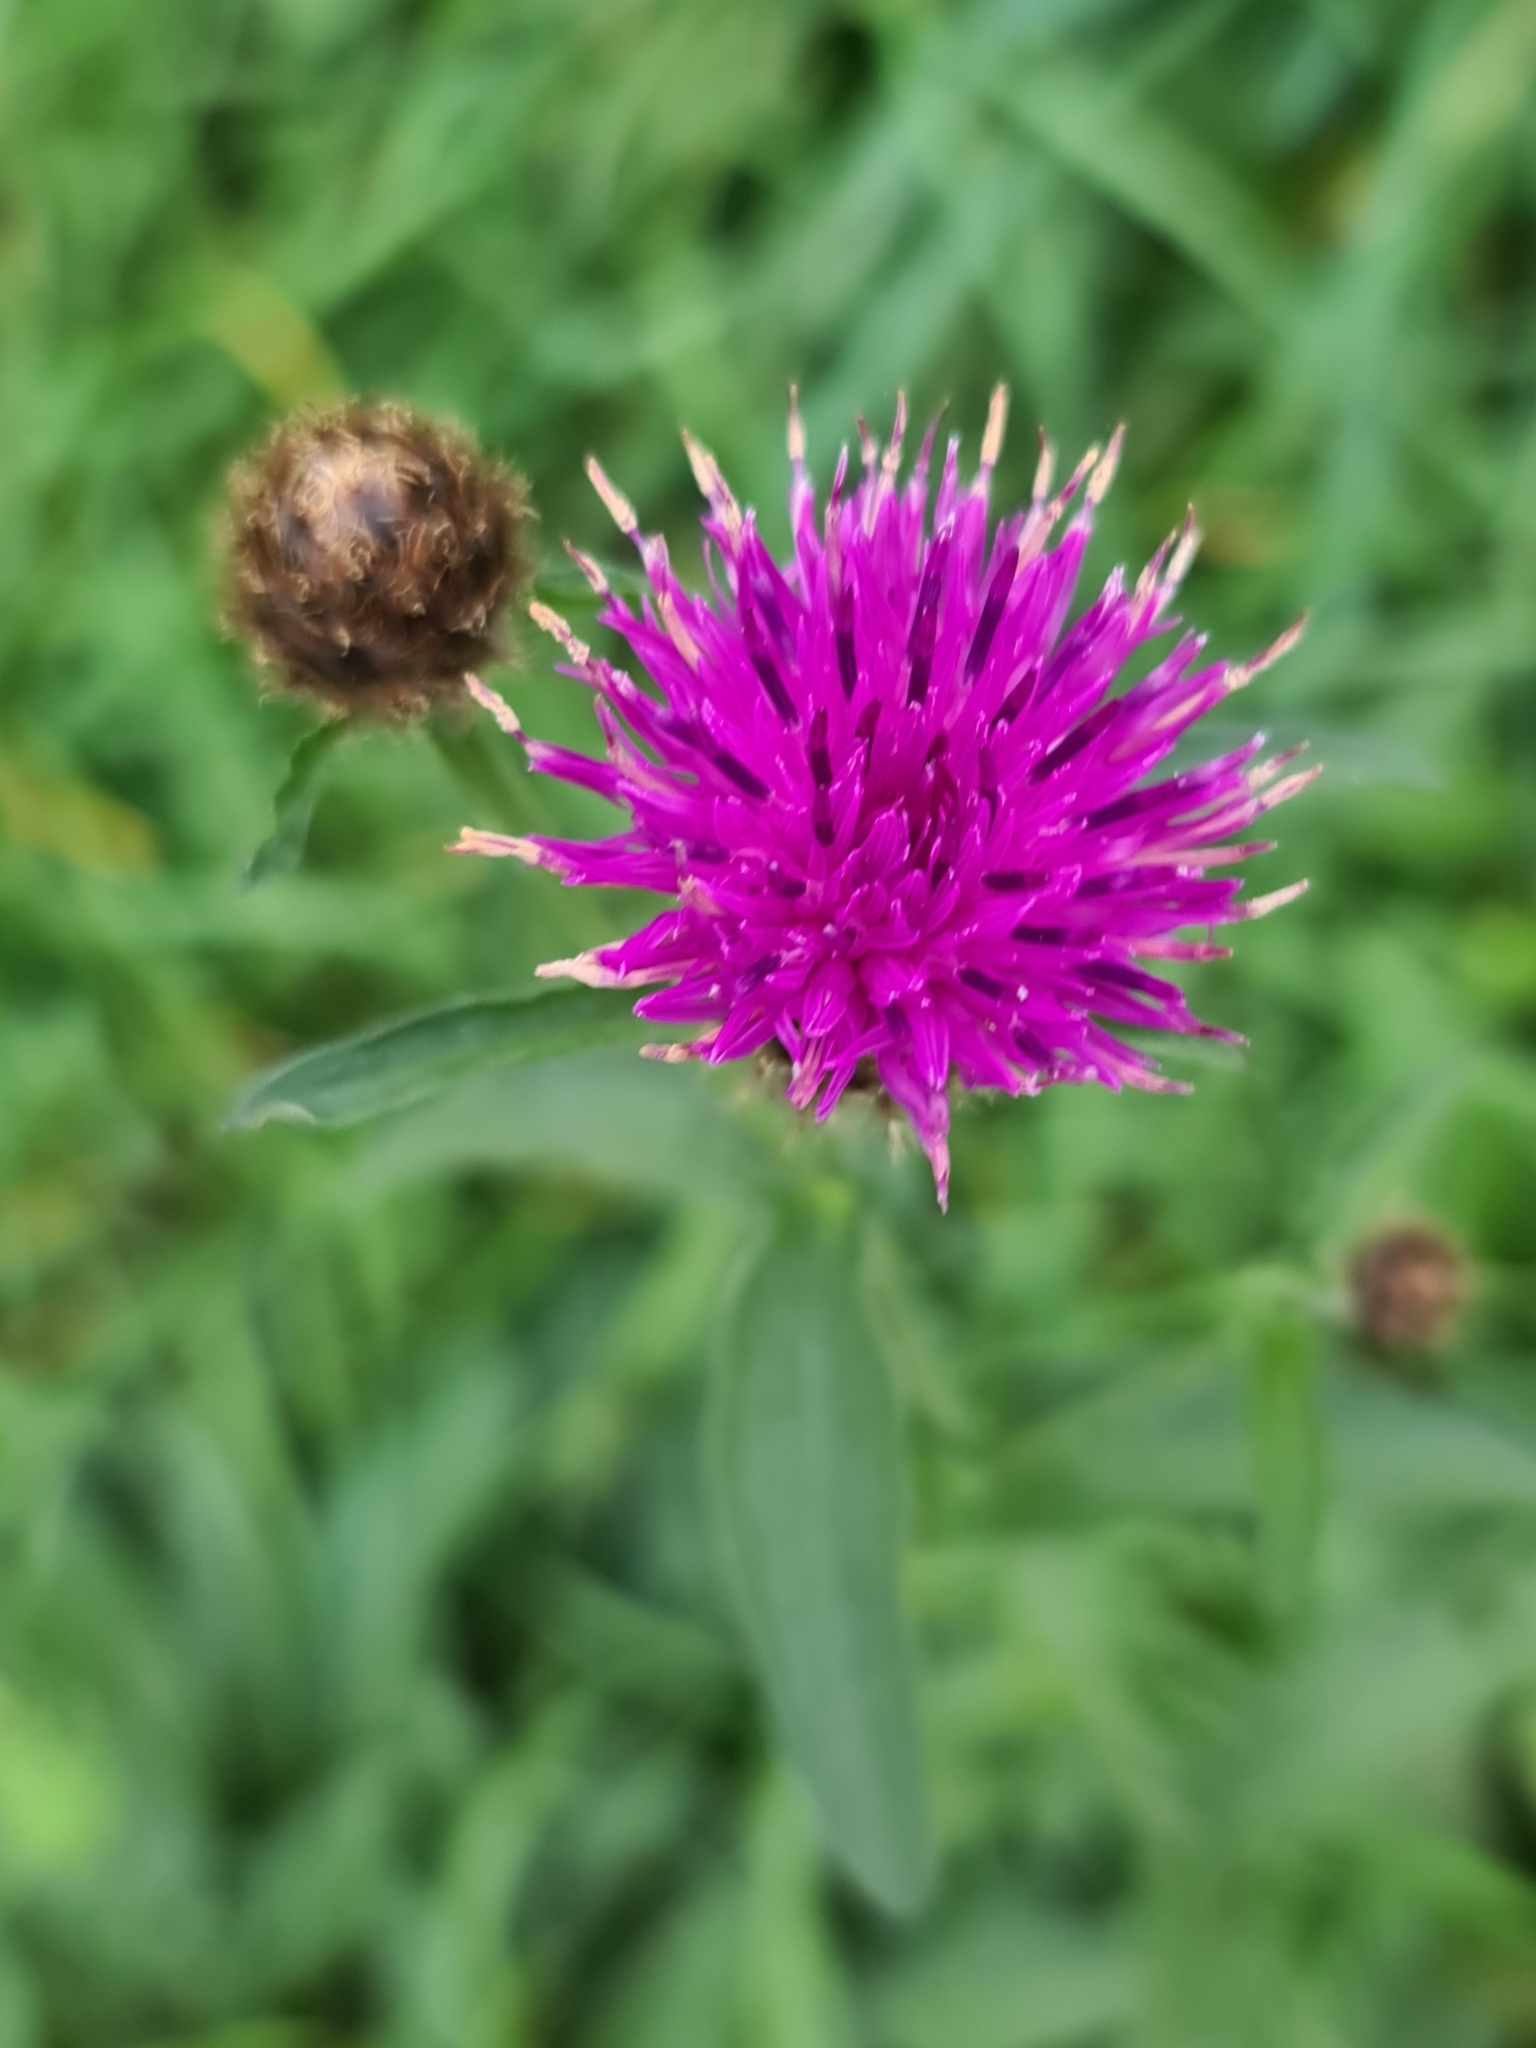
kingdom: Plantae
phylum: Tracheophyta
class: Magnoliopsida
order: Asterales
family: Asteraceae
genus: Centaurea
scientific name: Centaurea nigra
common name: Lesser knapweed
